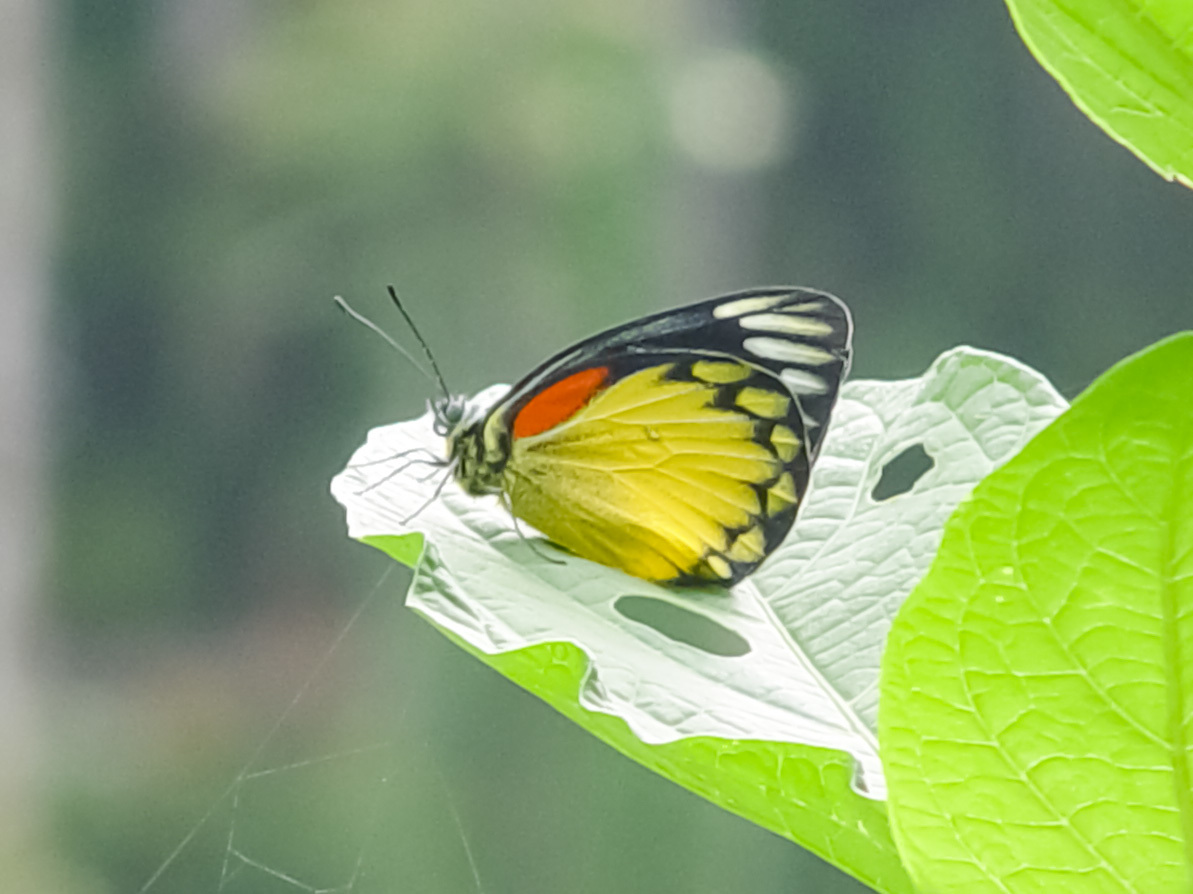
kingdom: Animalia
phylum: Arthropoda
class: Insecta
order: Lepidoptera
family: Pieridae
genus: Delias
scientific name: Delias descombesi
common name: Red-spot jezebel
